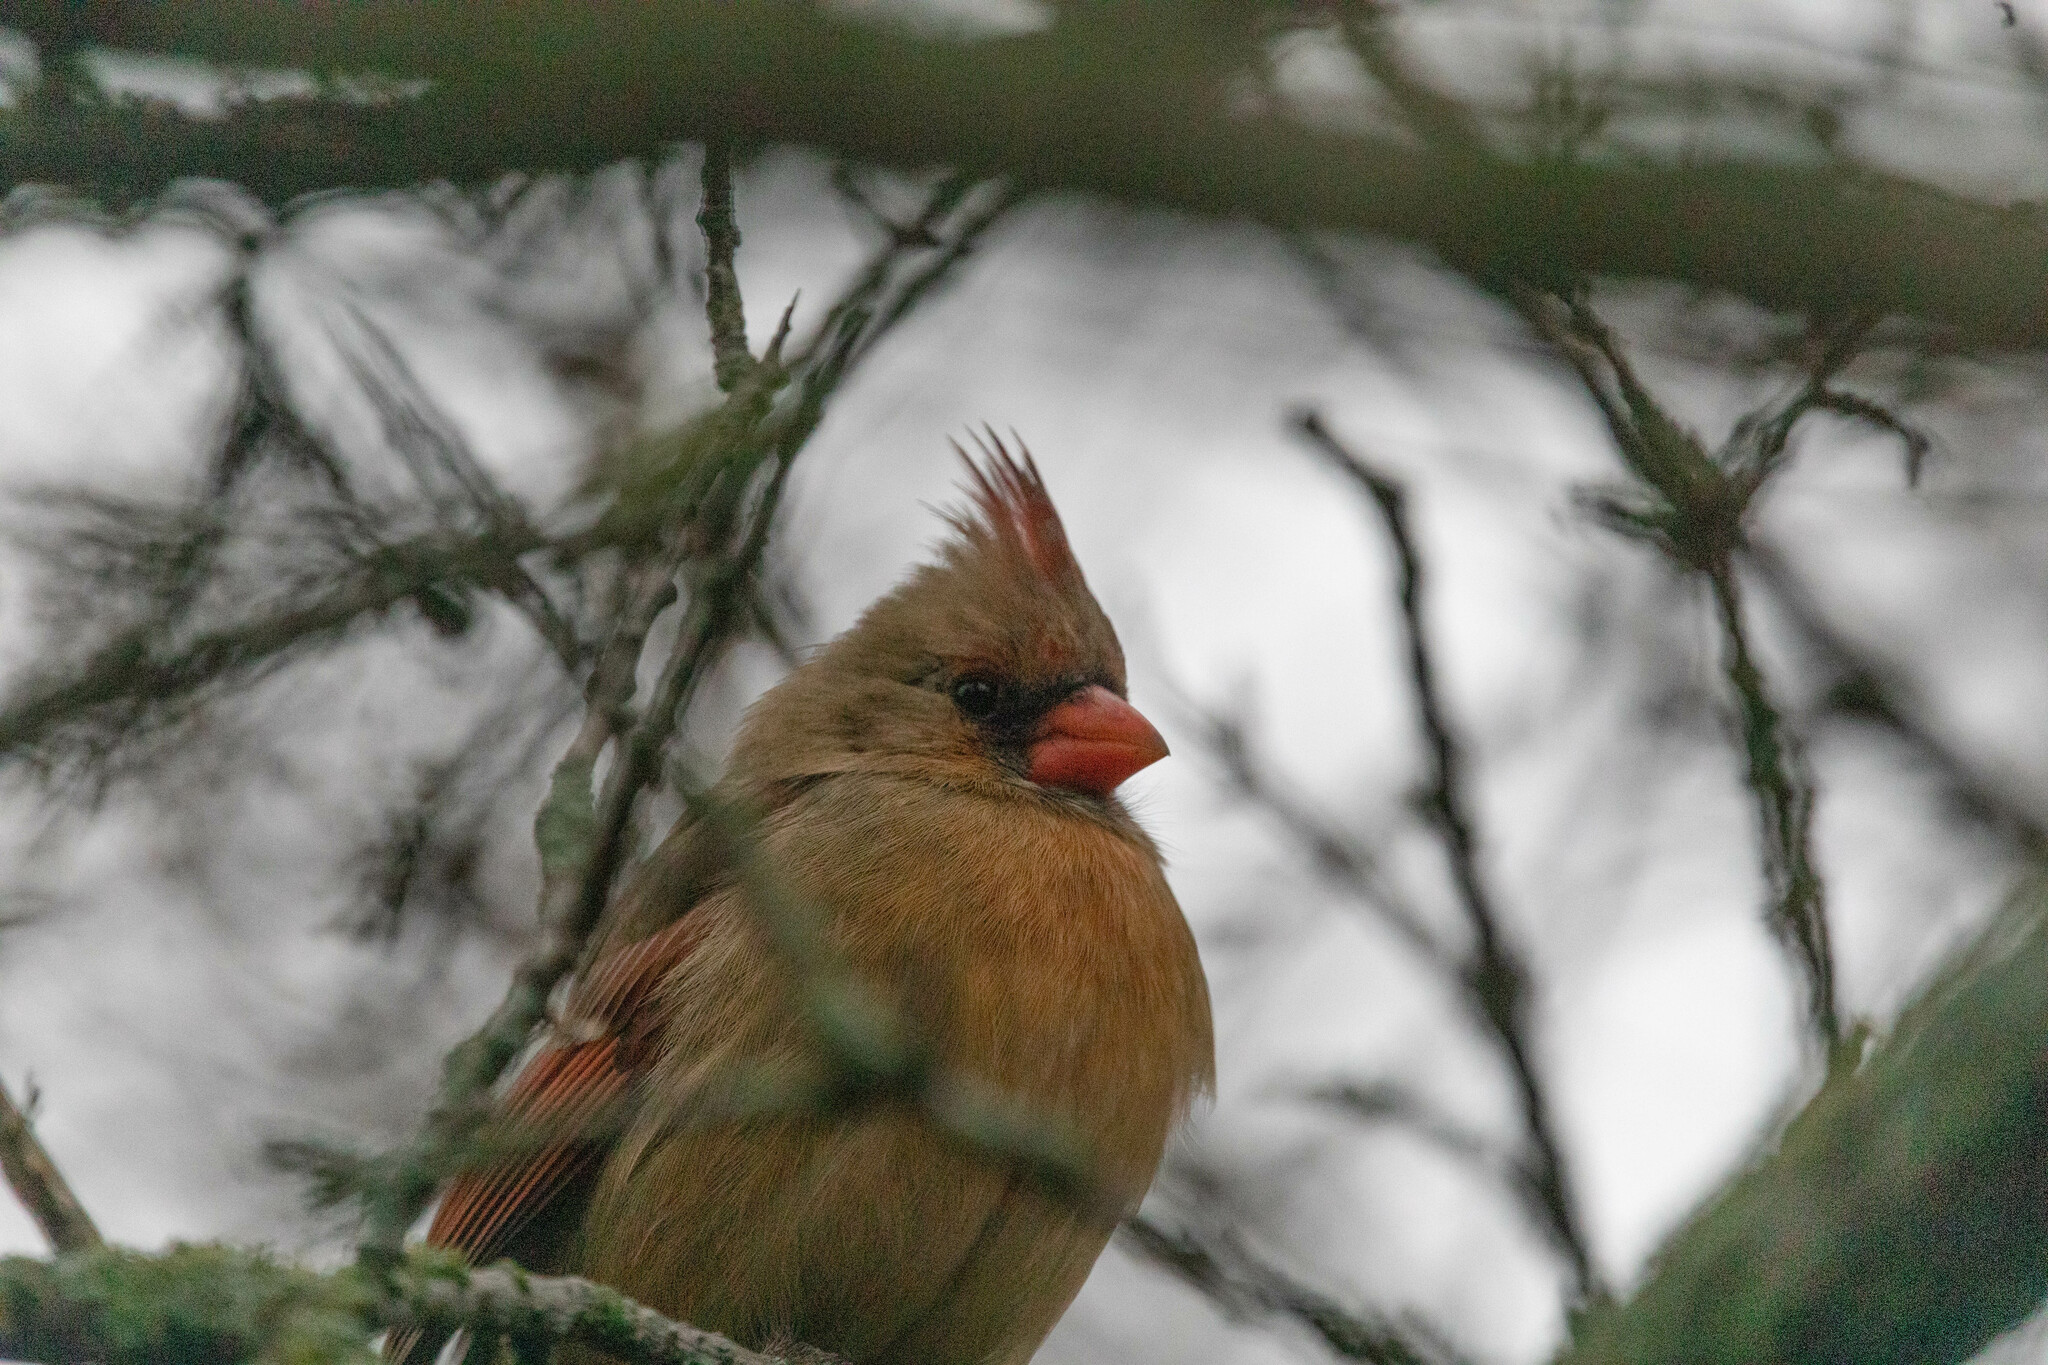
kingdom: Animalia
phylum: Chordata
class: Aves
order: Passeriformes
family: Cardinalidae
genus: Cardinalis
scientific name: Cardinalis cardinalis
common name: Northern cardinal
